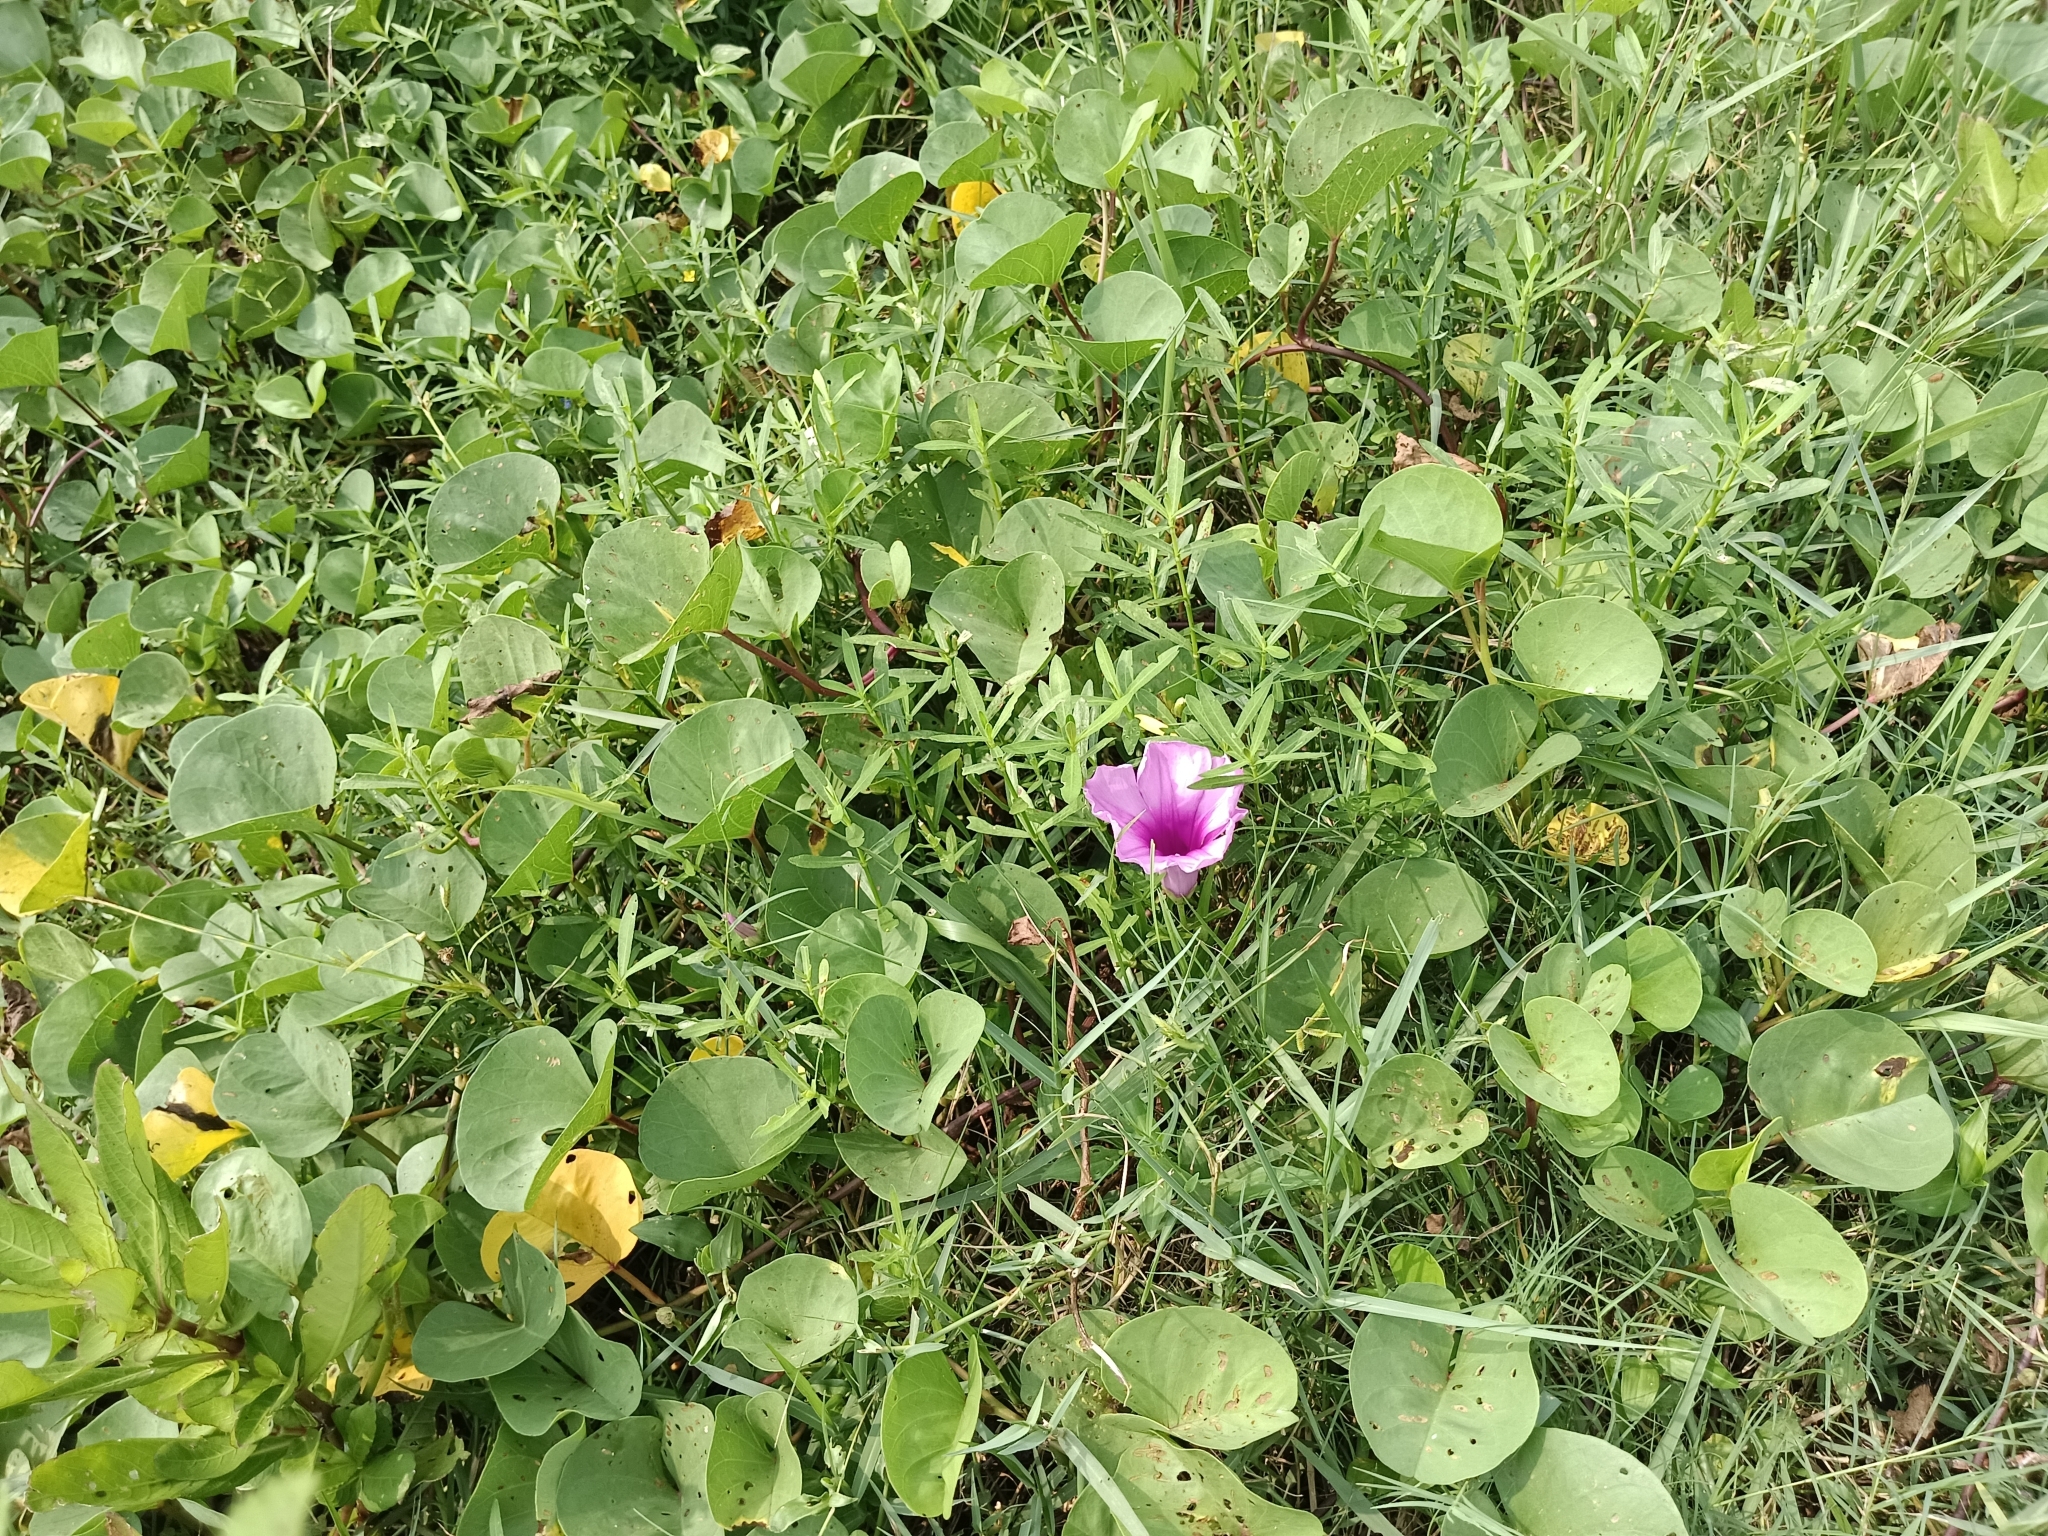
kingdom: Plantae
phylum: Tracheophyta
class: Magnoliopsida
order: Solanales
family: Convolvulaceae
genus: Ipomoea
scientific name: Ipomoea pes-caprae
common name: Beach morning glory
